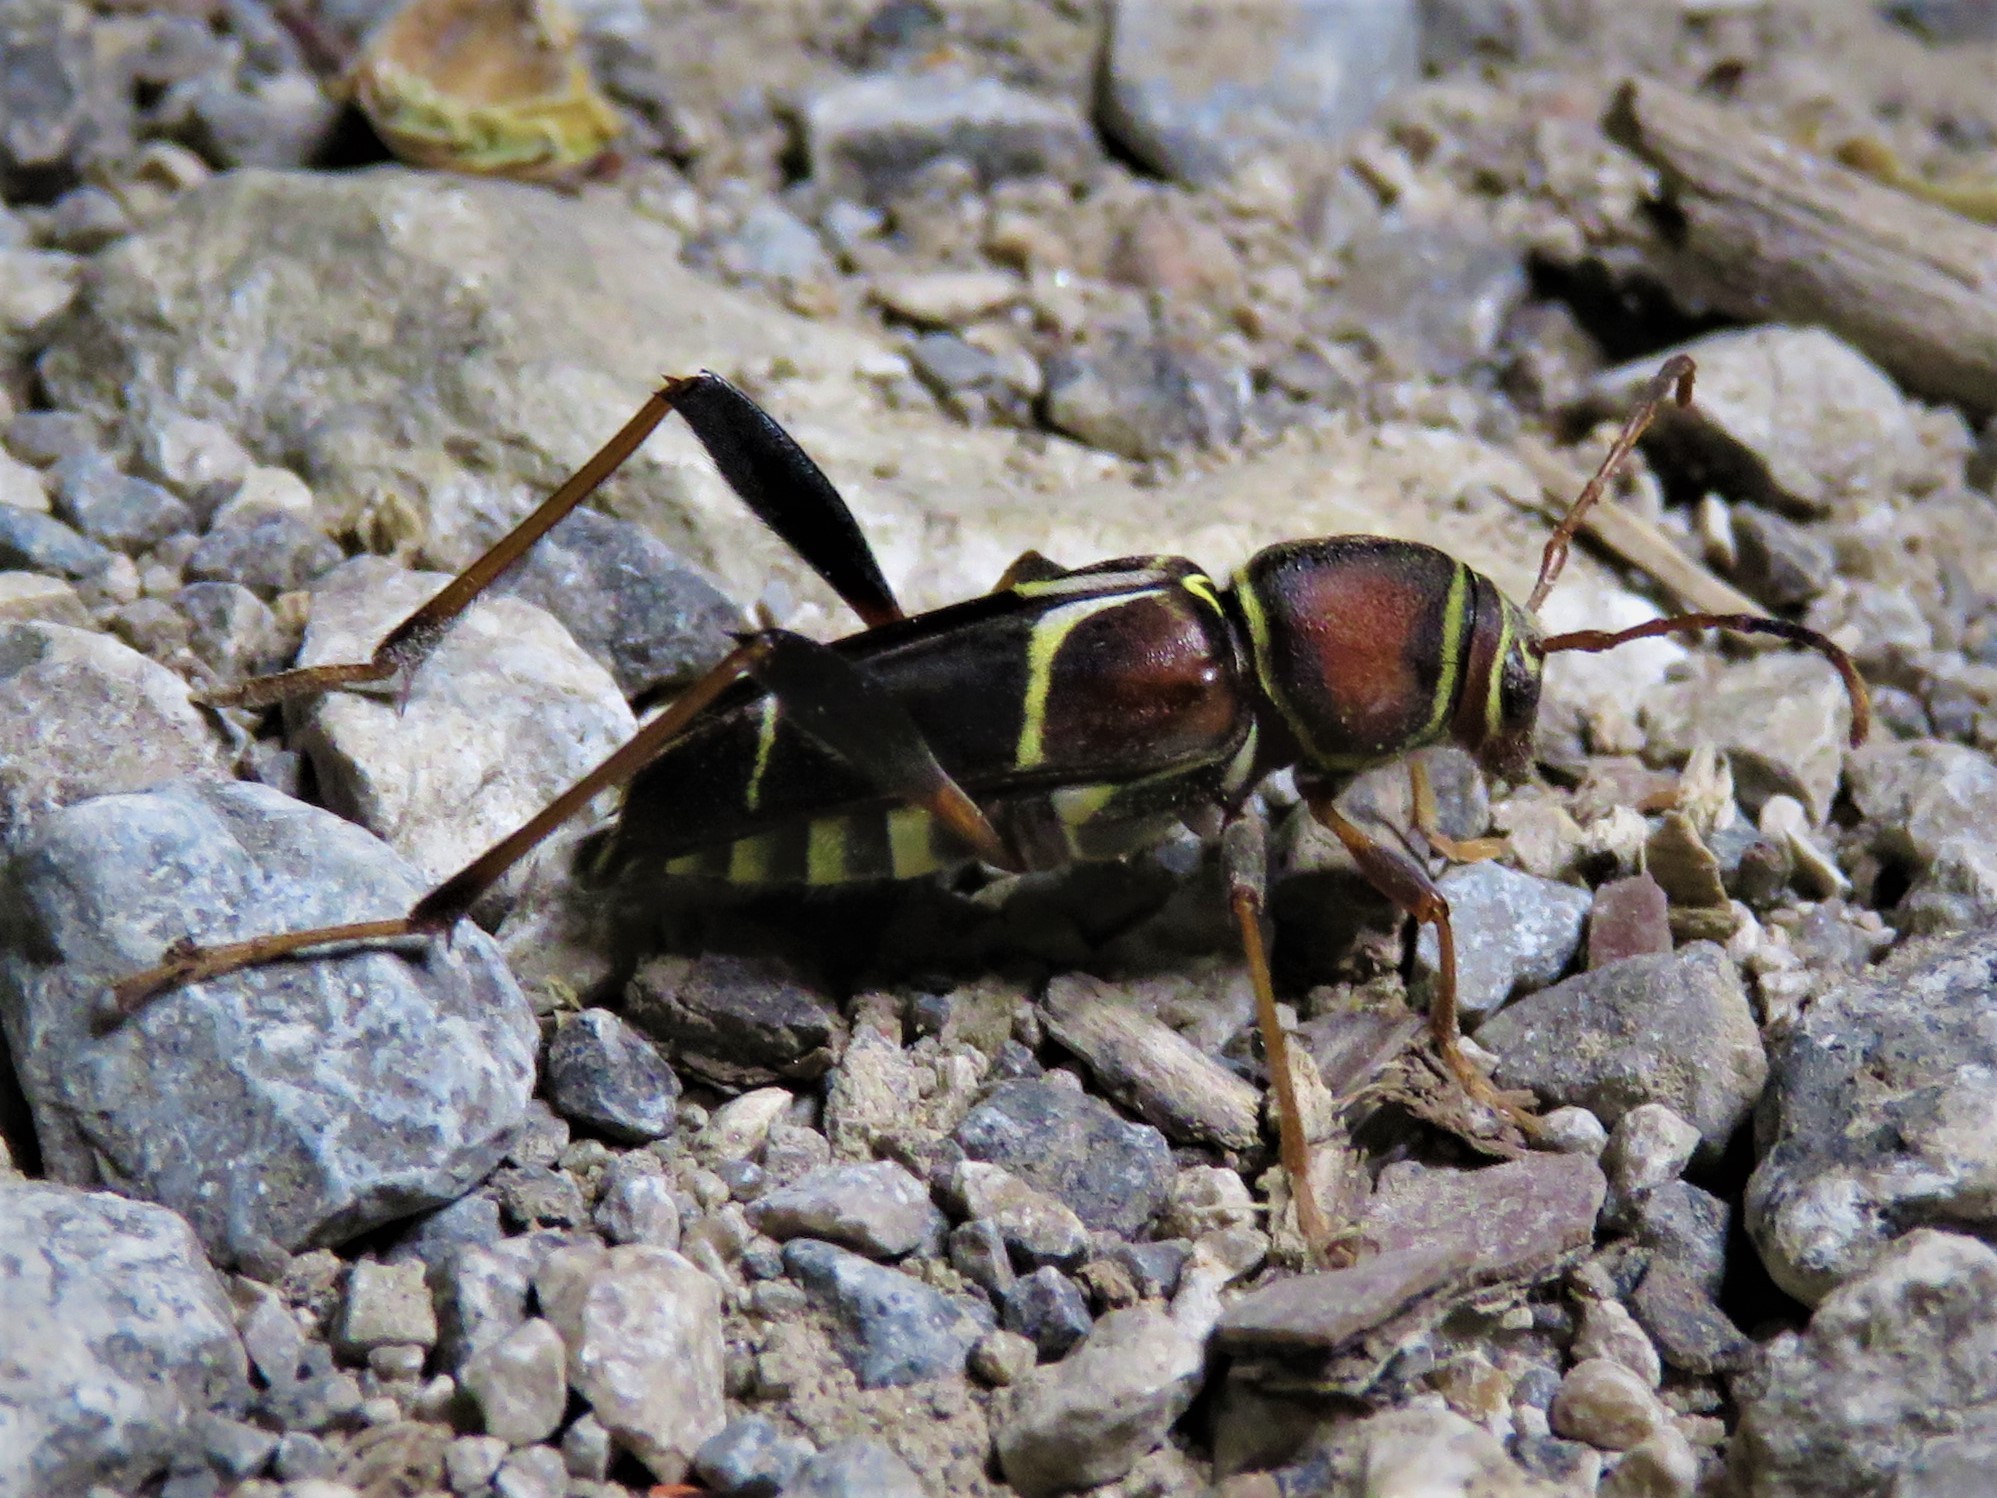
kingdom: Animalia
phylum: Arthropoda
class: Insecta
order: Coleoptera
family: Cerambycidae
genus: Neoclytus
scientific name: Neoclytus mucronatus
